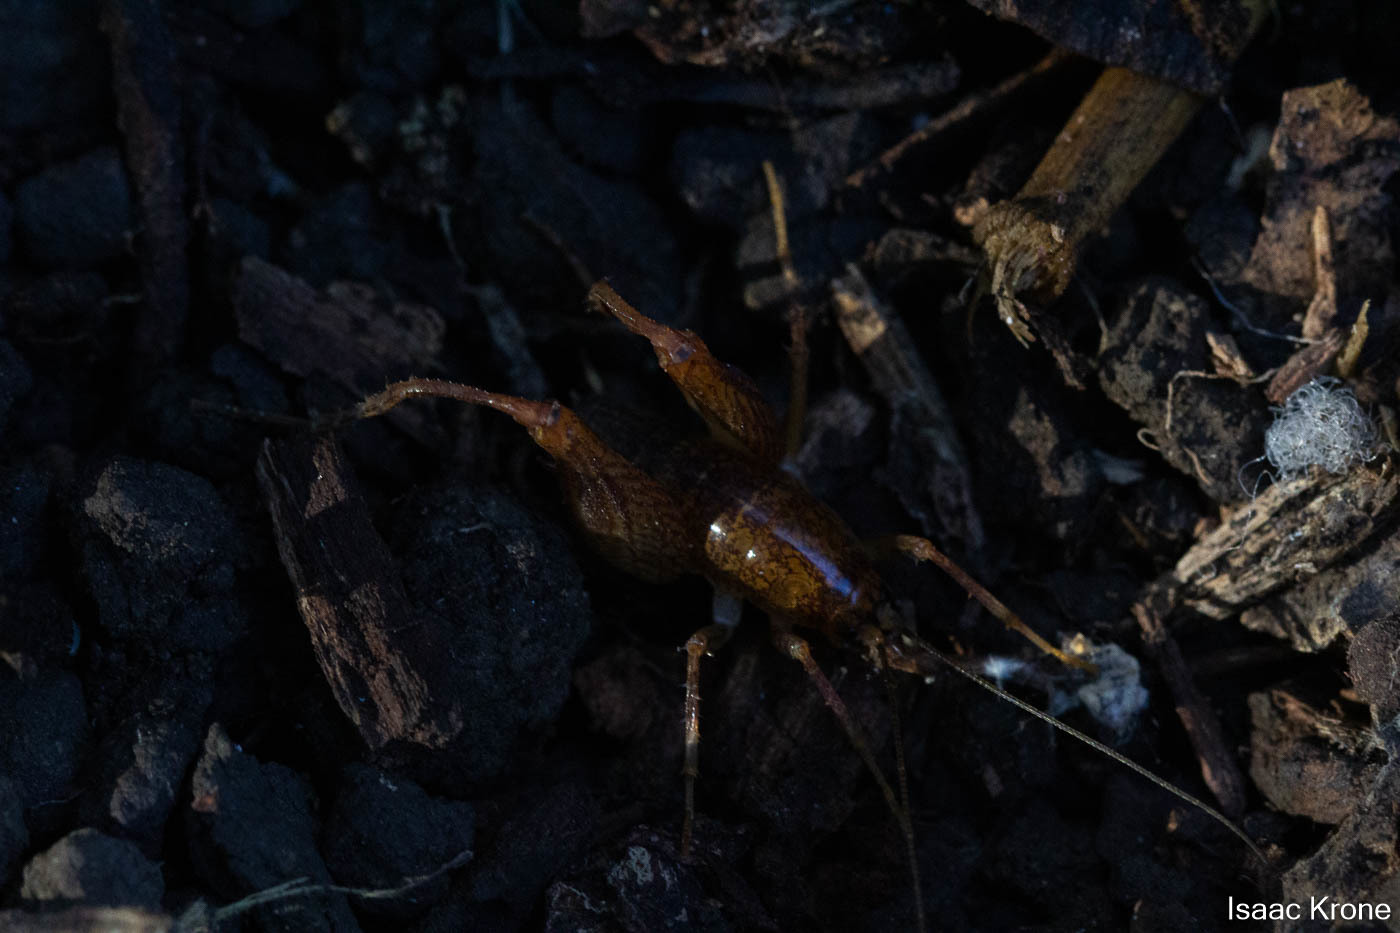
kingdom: Animalia
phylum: Arthropoda
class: Insecta
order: Orthoptera
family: Rhaphidophoridae
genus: Pristoceuthophilus
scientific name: Pristoceuthophilus pacificus
